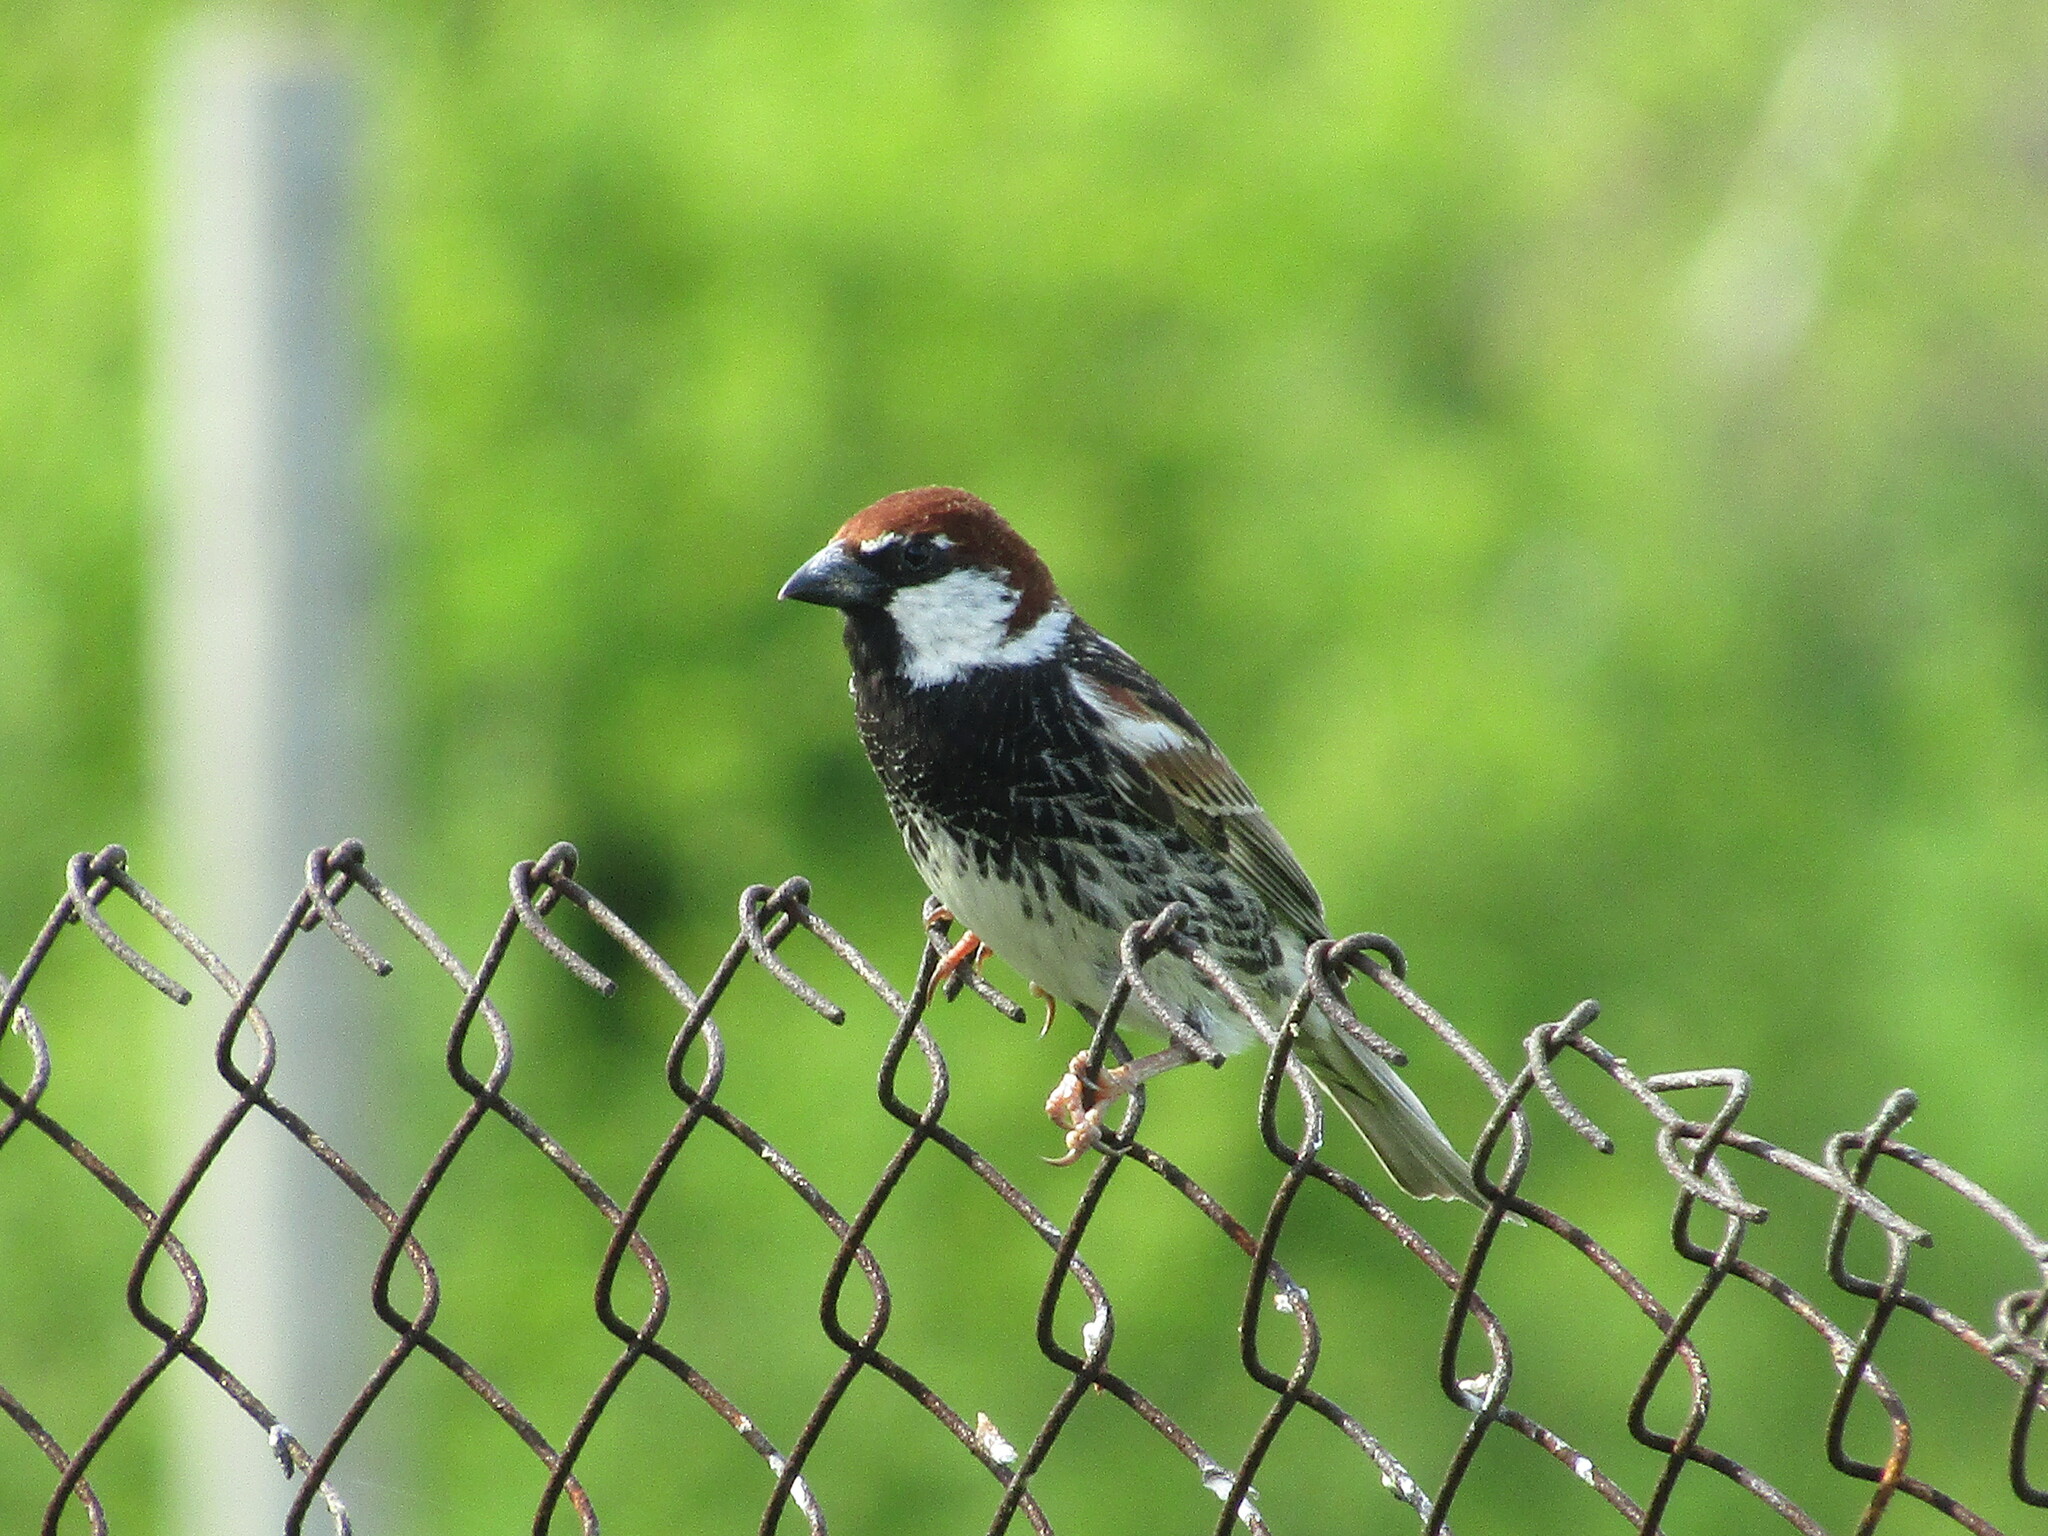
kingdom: Animalia
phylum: Chordata
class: Aves
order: Passeriformes
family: Passeridae
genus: Passer
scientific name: Passer hispaniolensis
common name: Spanish sparrow
